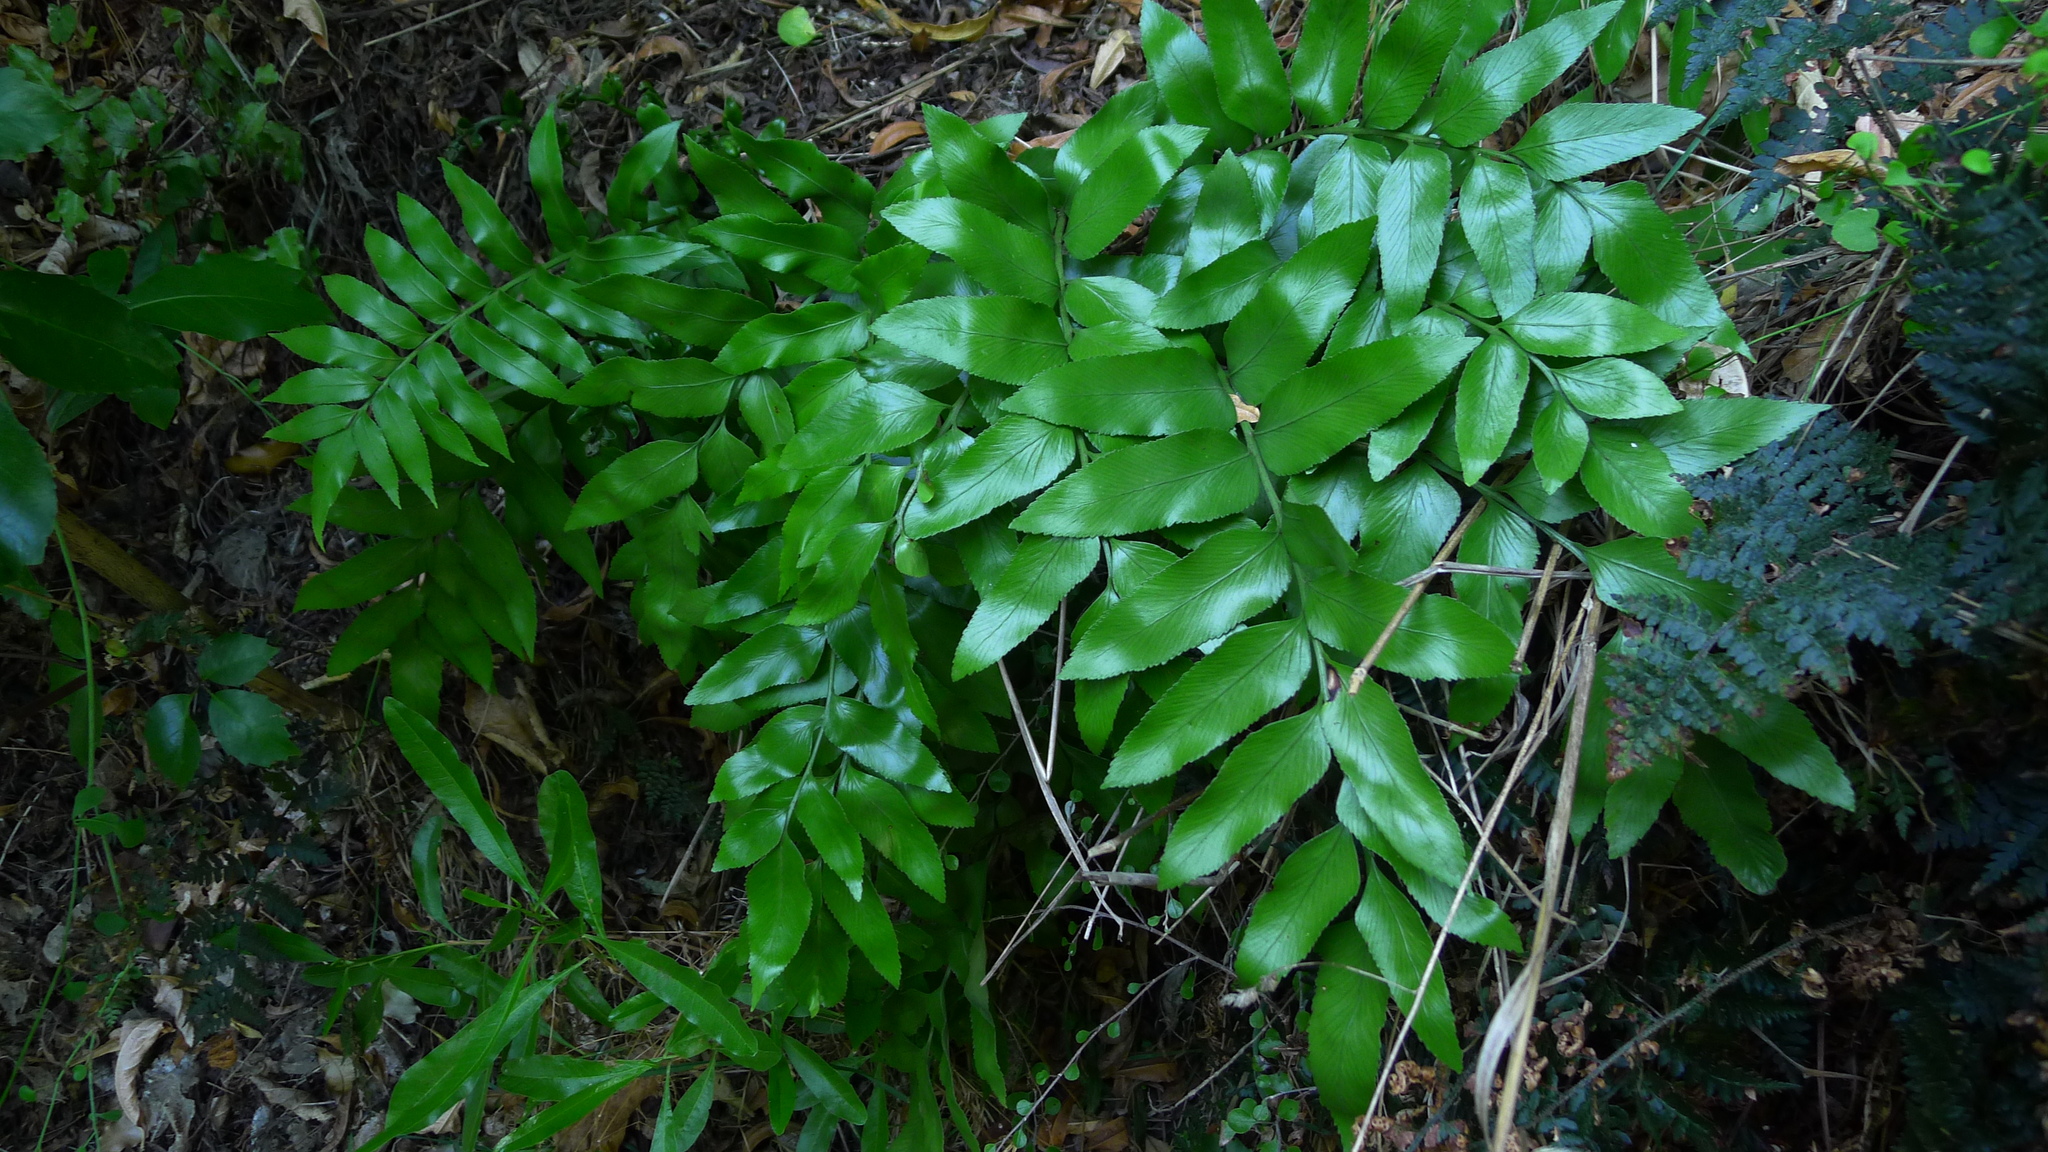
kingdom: Plantae
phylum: Tracheophyta
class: Polypodiopsida
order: Polypodiales
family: Aspleniaceae
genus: Asplenium
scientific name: Asplenium oblongifolium
